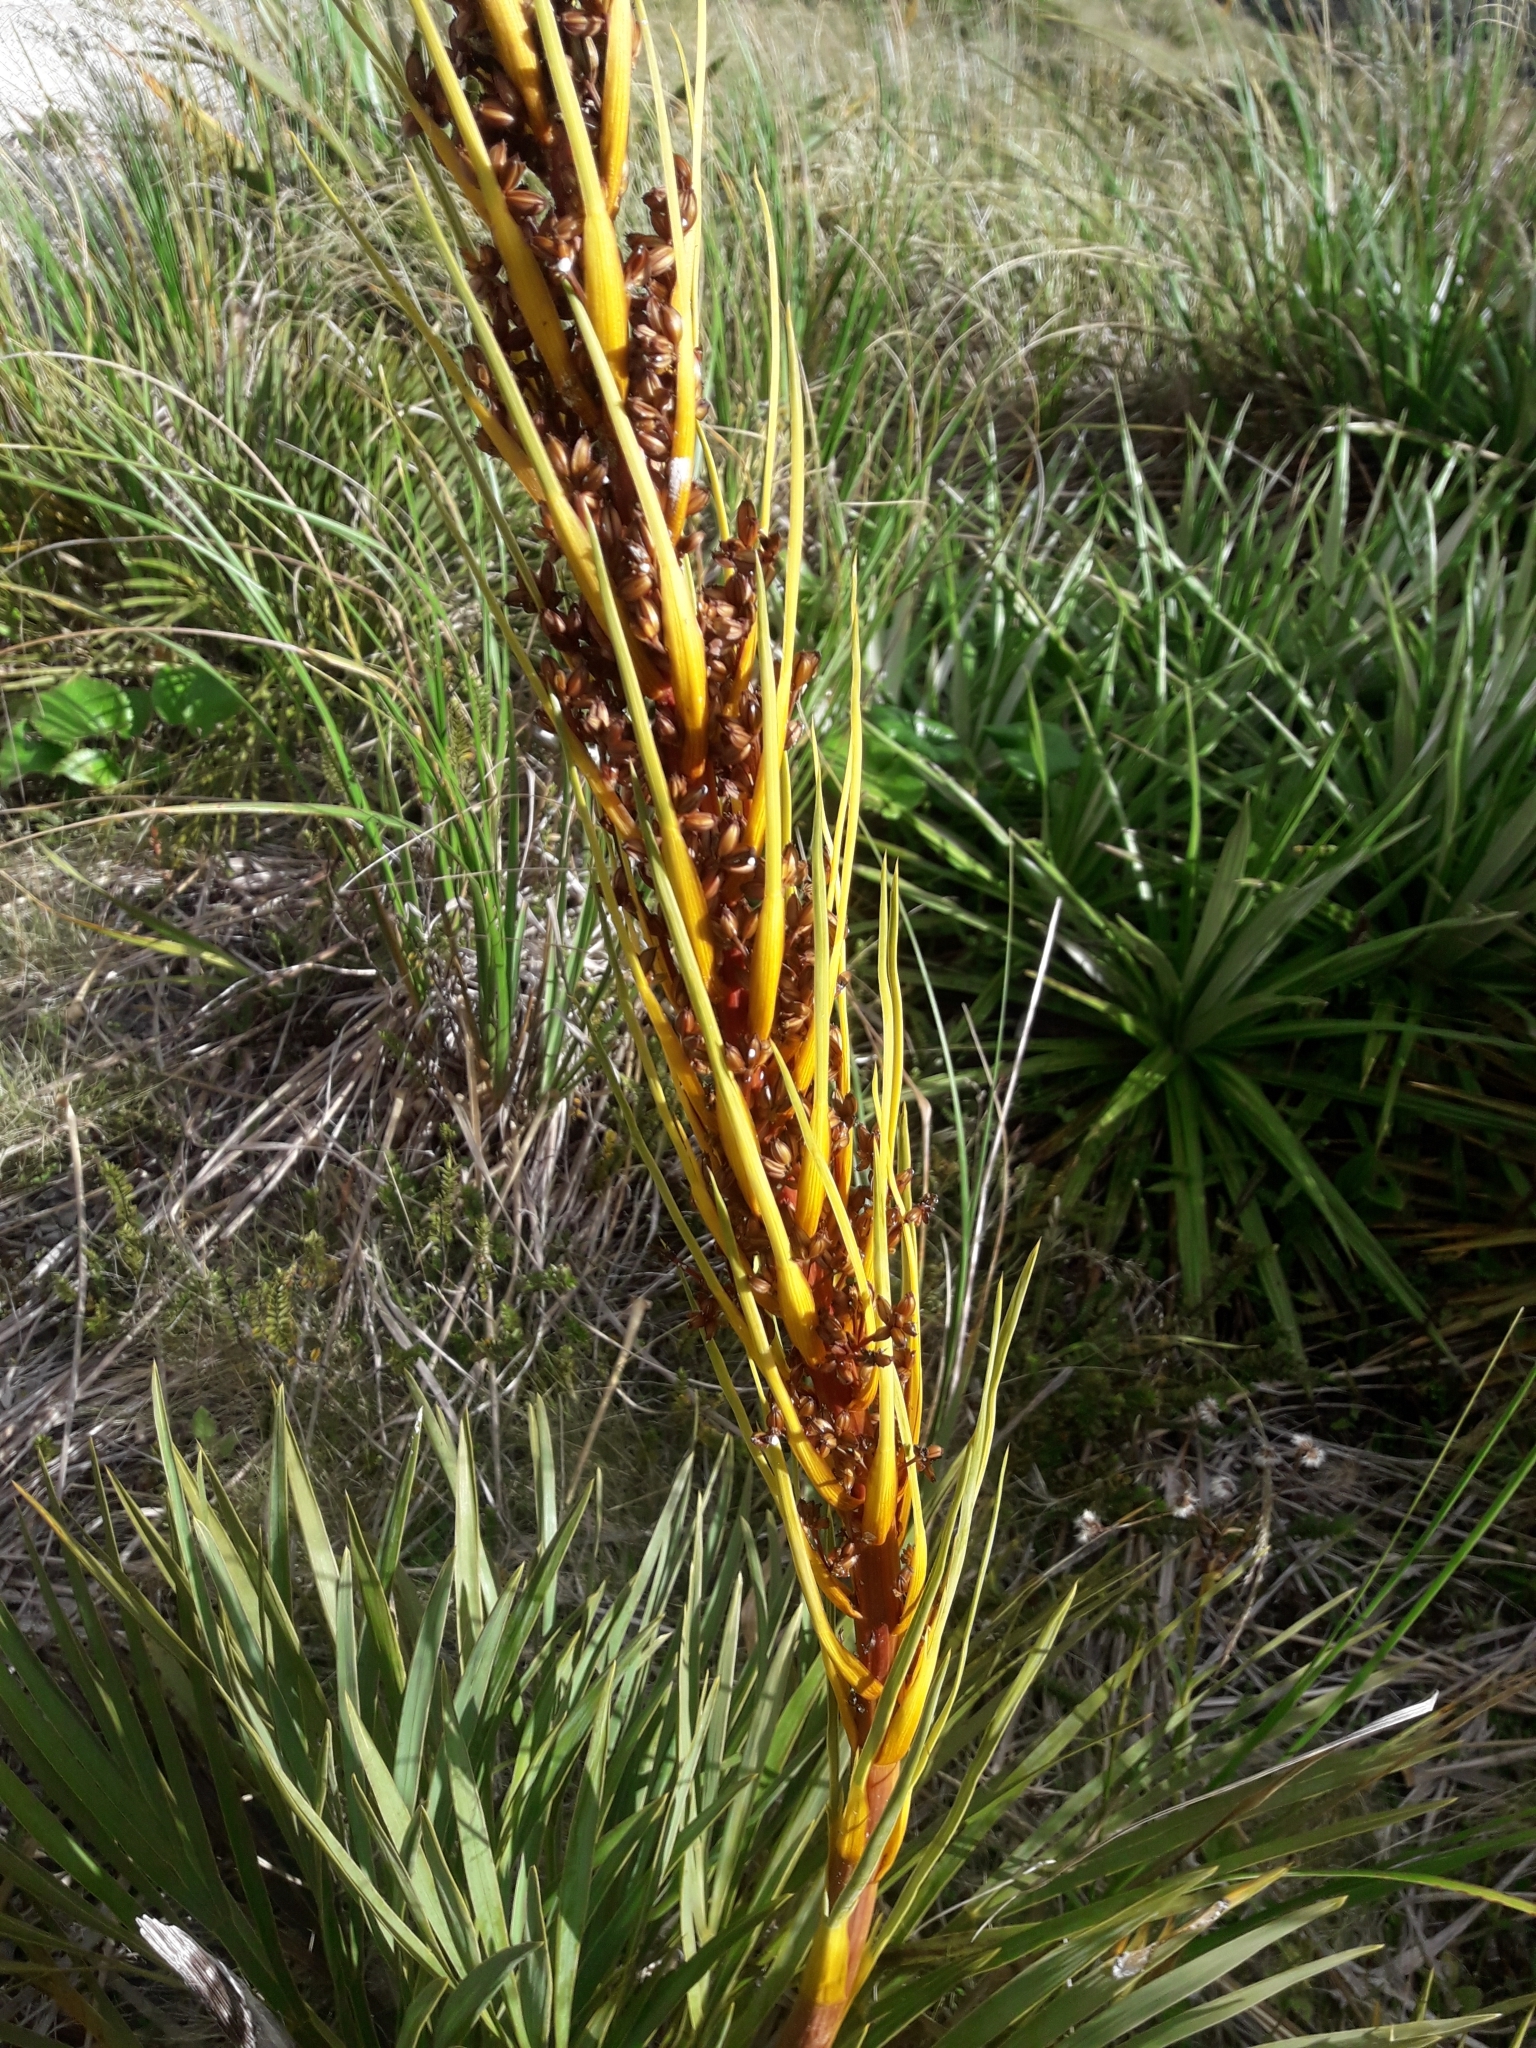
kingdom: Plantae
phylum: Tracheophyta
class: Magnoliopsida
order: Apiales
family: Apiaceae
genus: Aciphylla
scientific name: Aciphylla ferox
